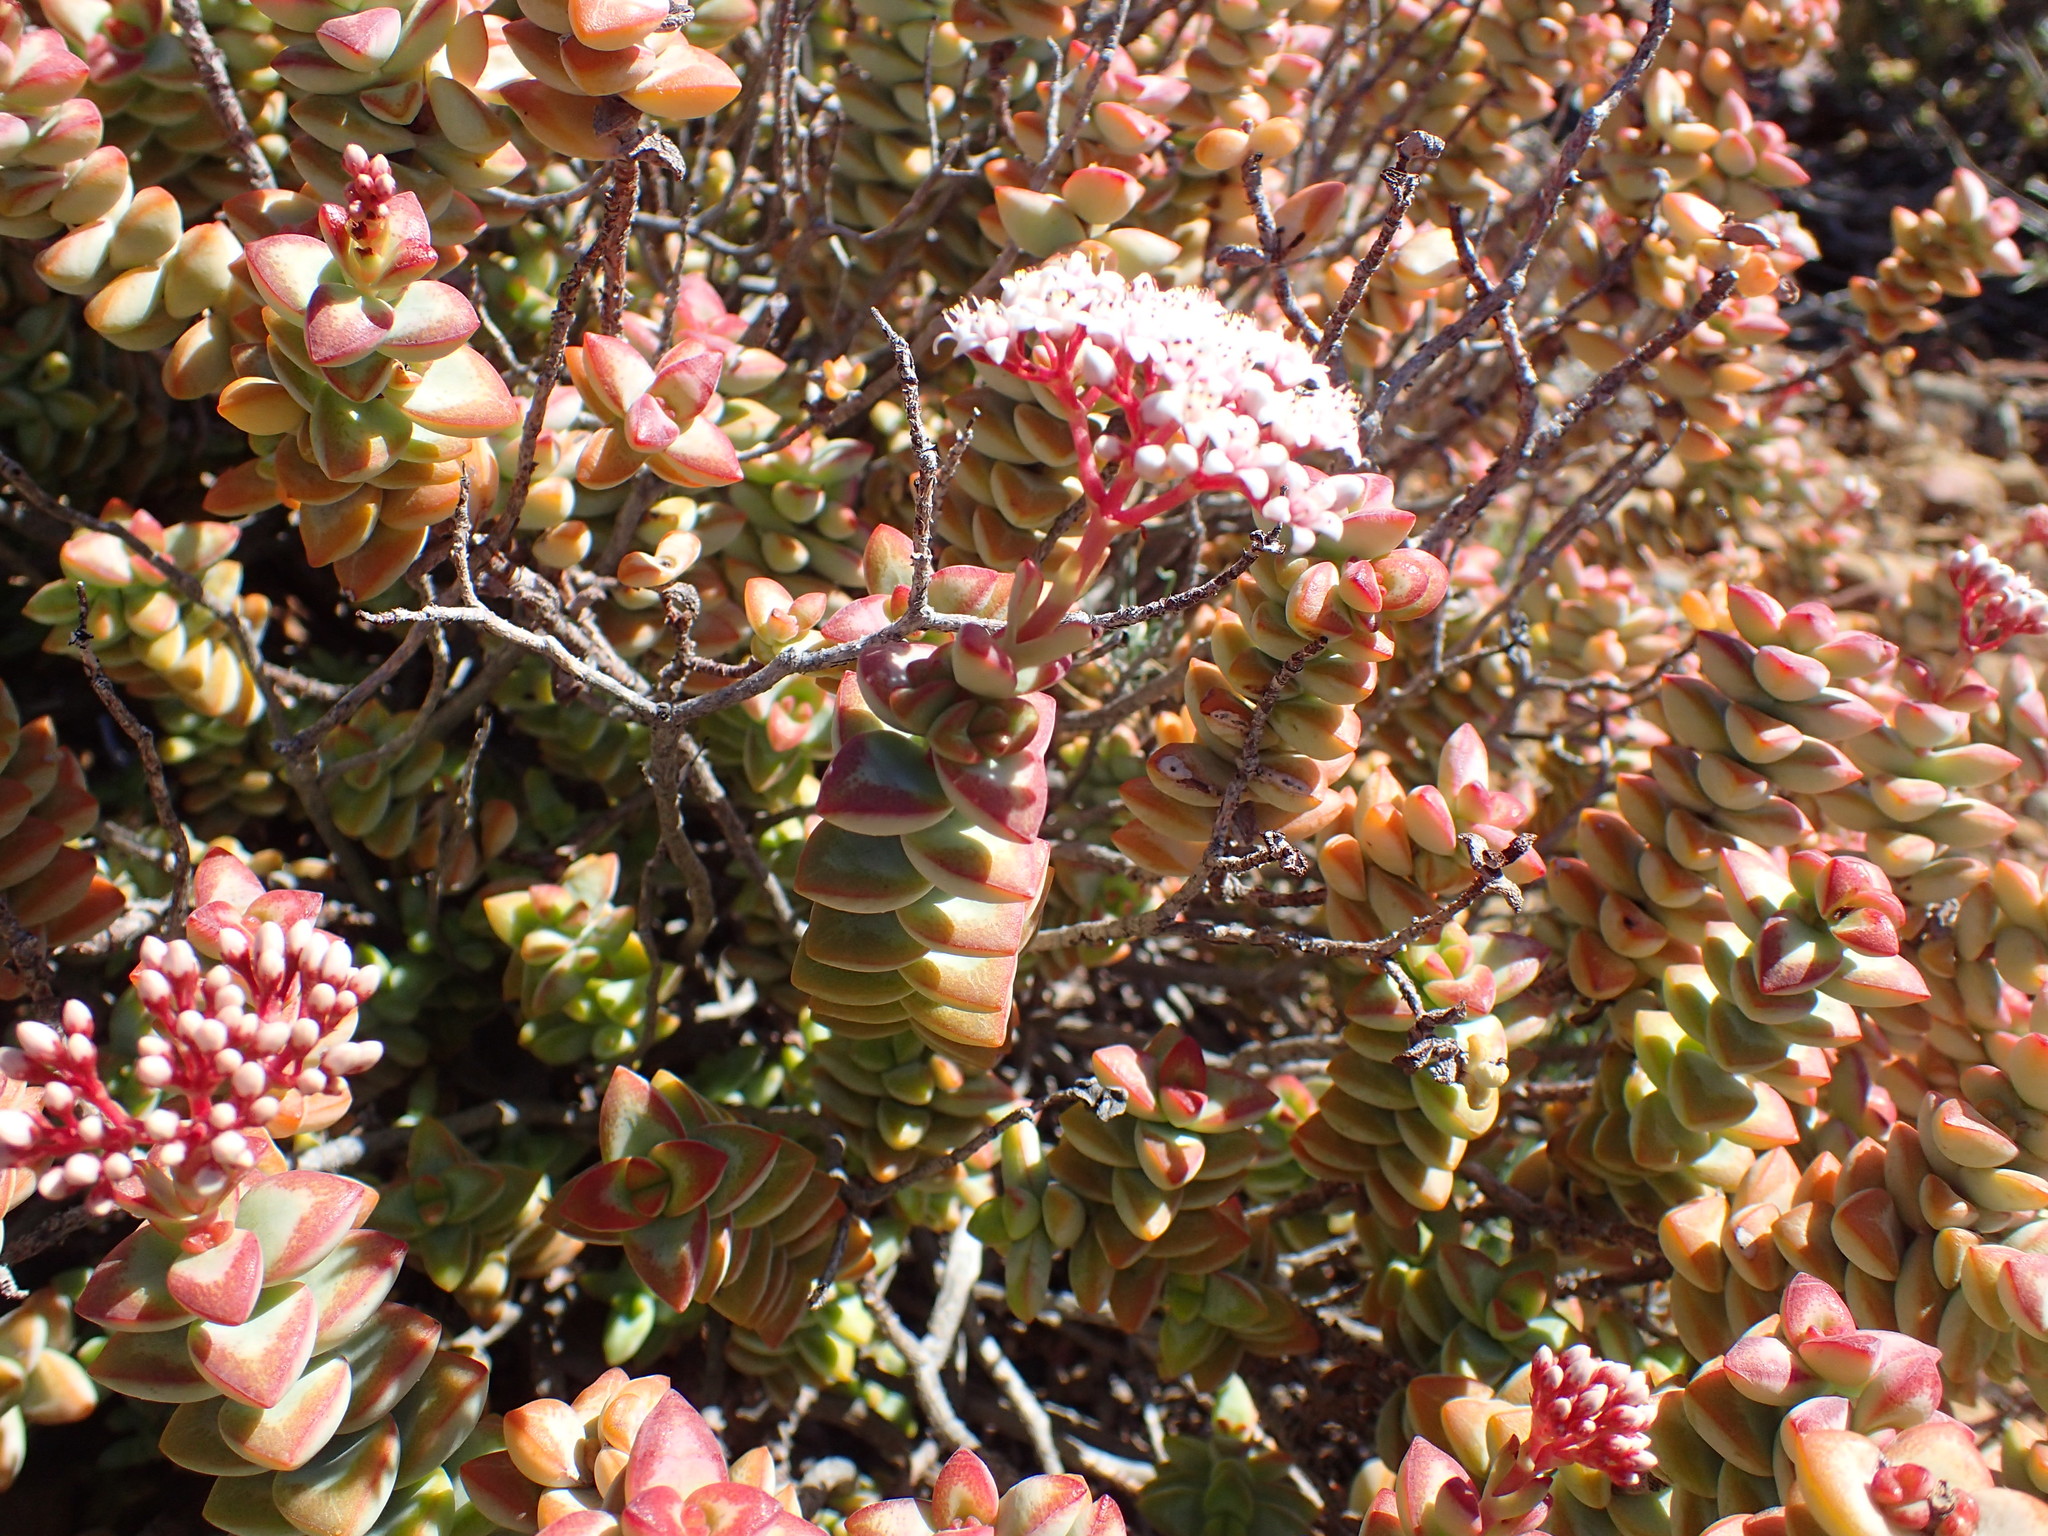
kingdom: Plantae
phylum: Tracheophyta
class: Magnoliopsida
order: Saxifragales
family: Crassulaceae
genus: Crassula
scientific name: Crassula rupestris
